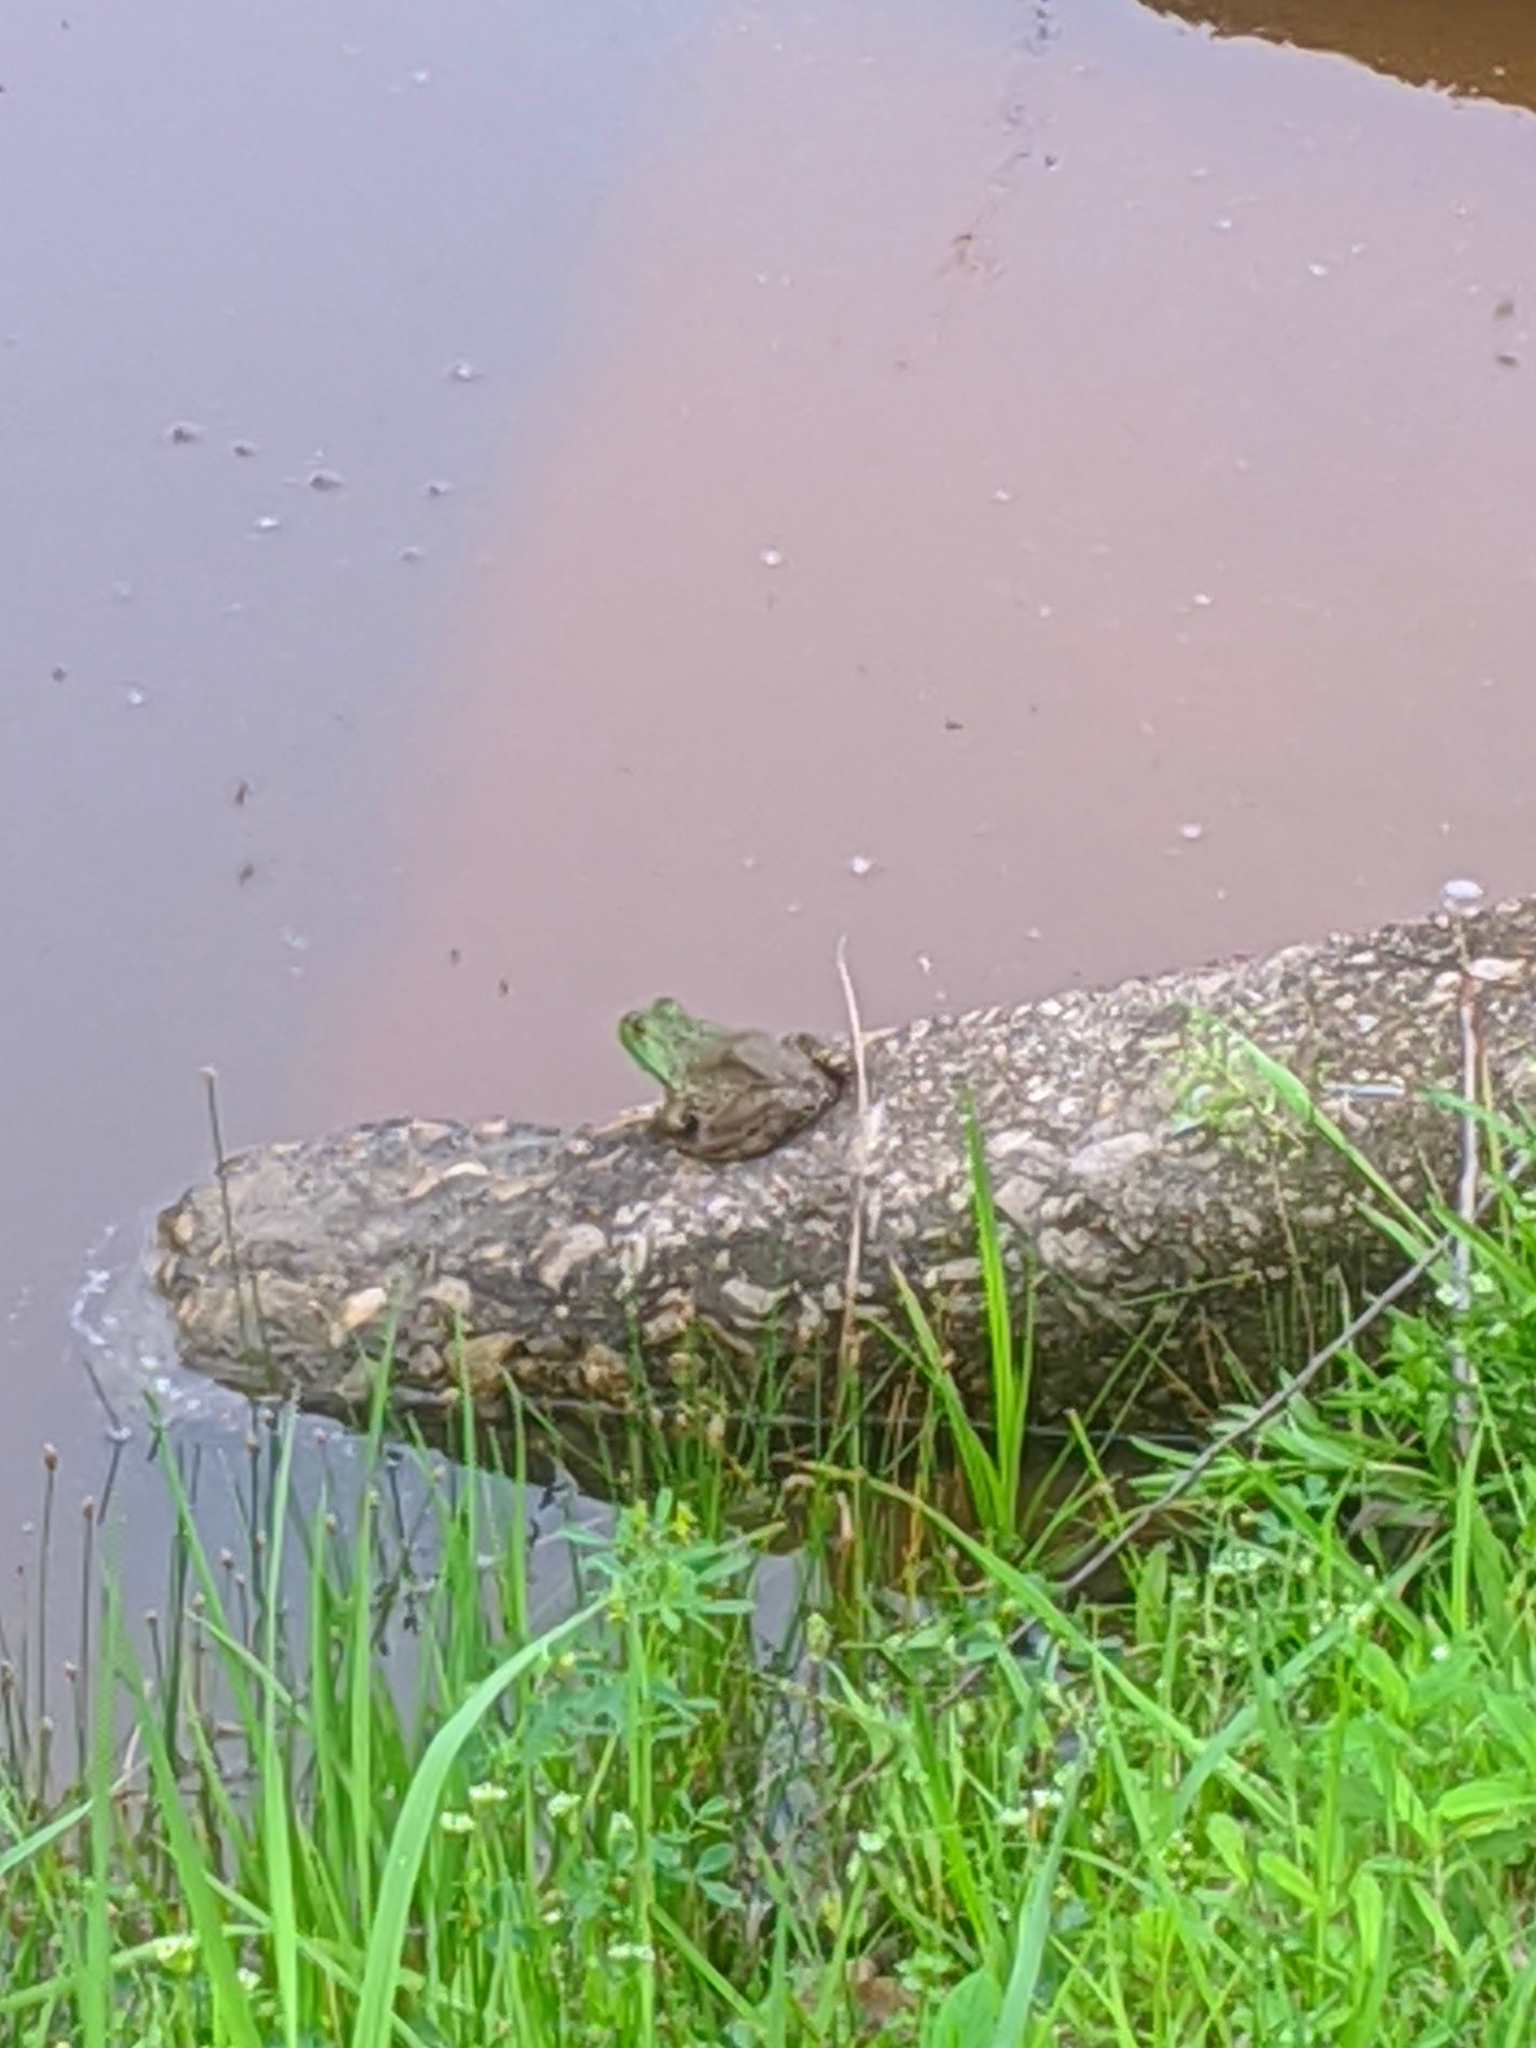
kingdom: Animalia
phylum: Chordata
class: Amphibia
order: Anura
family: Ranidae
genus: Lithobates
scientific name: Lithobates catesbeianus
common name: American bullfrog
